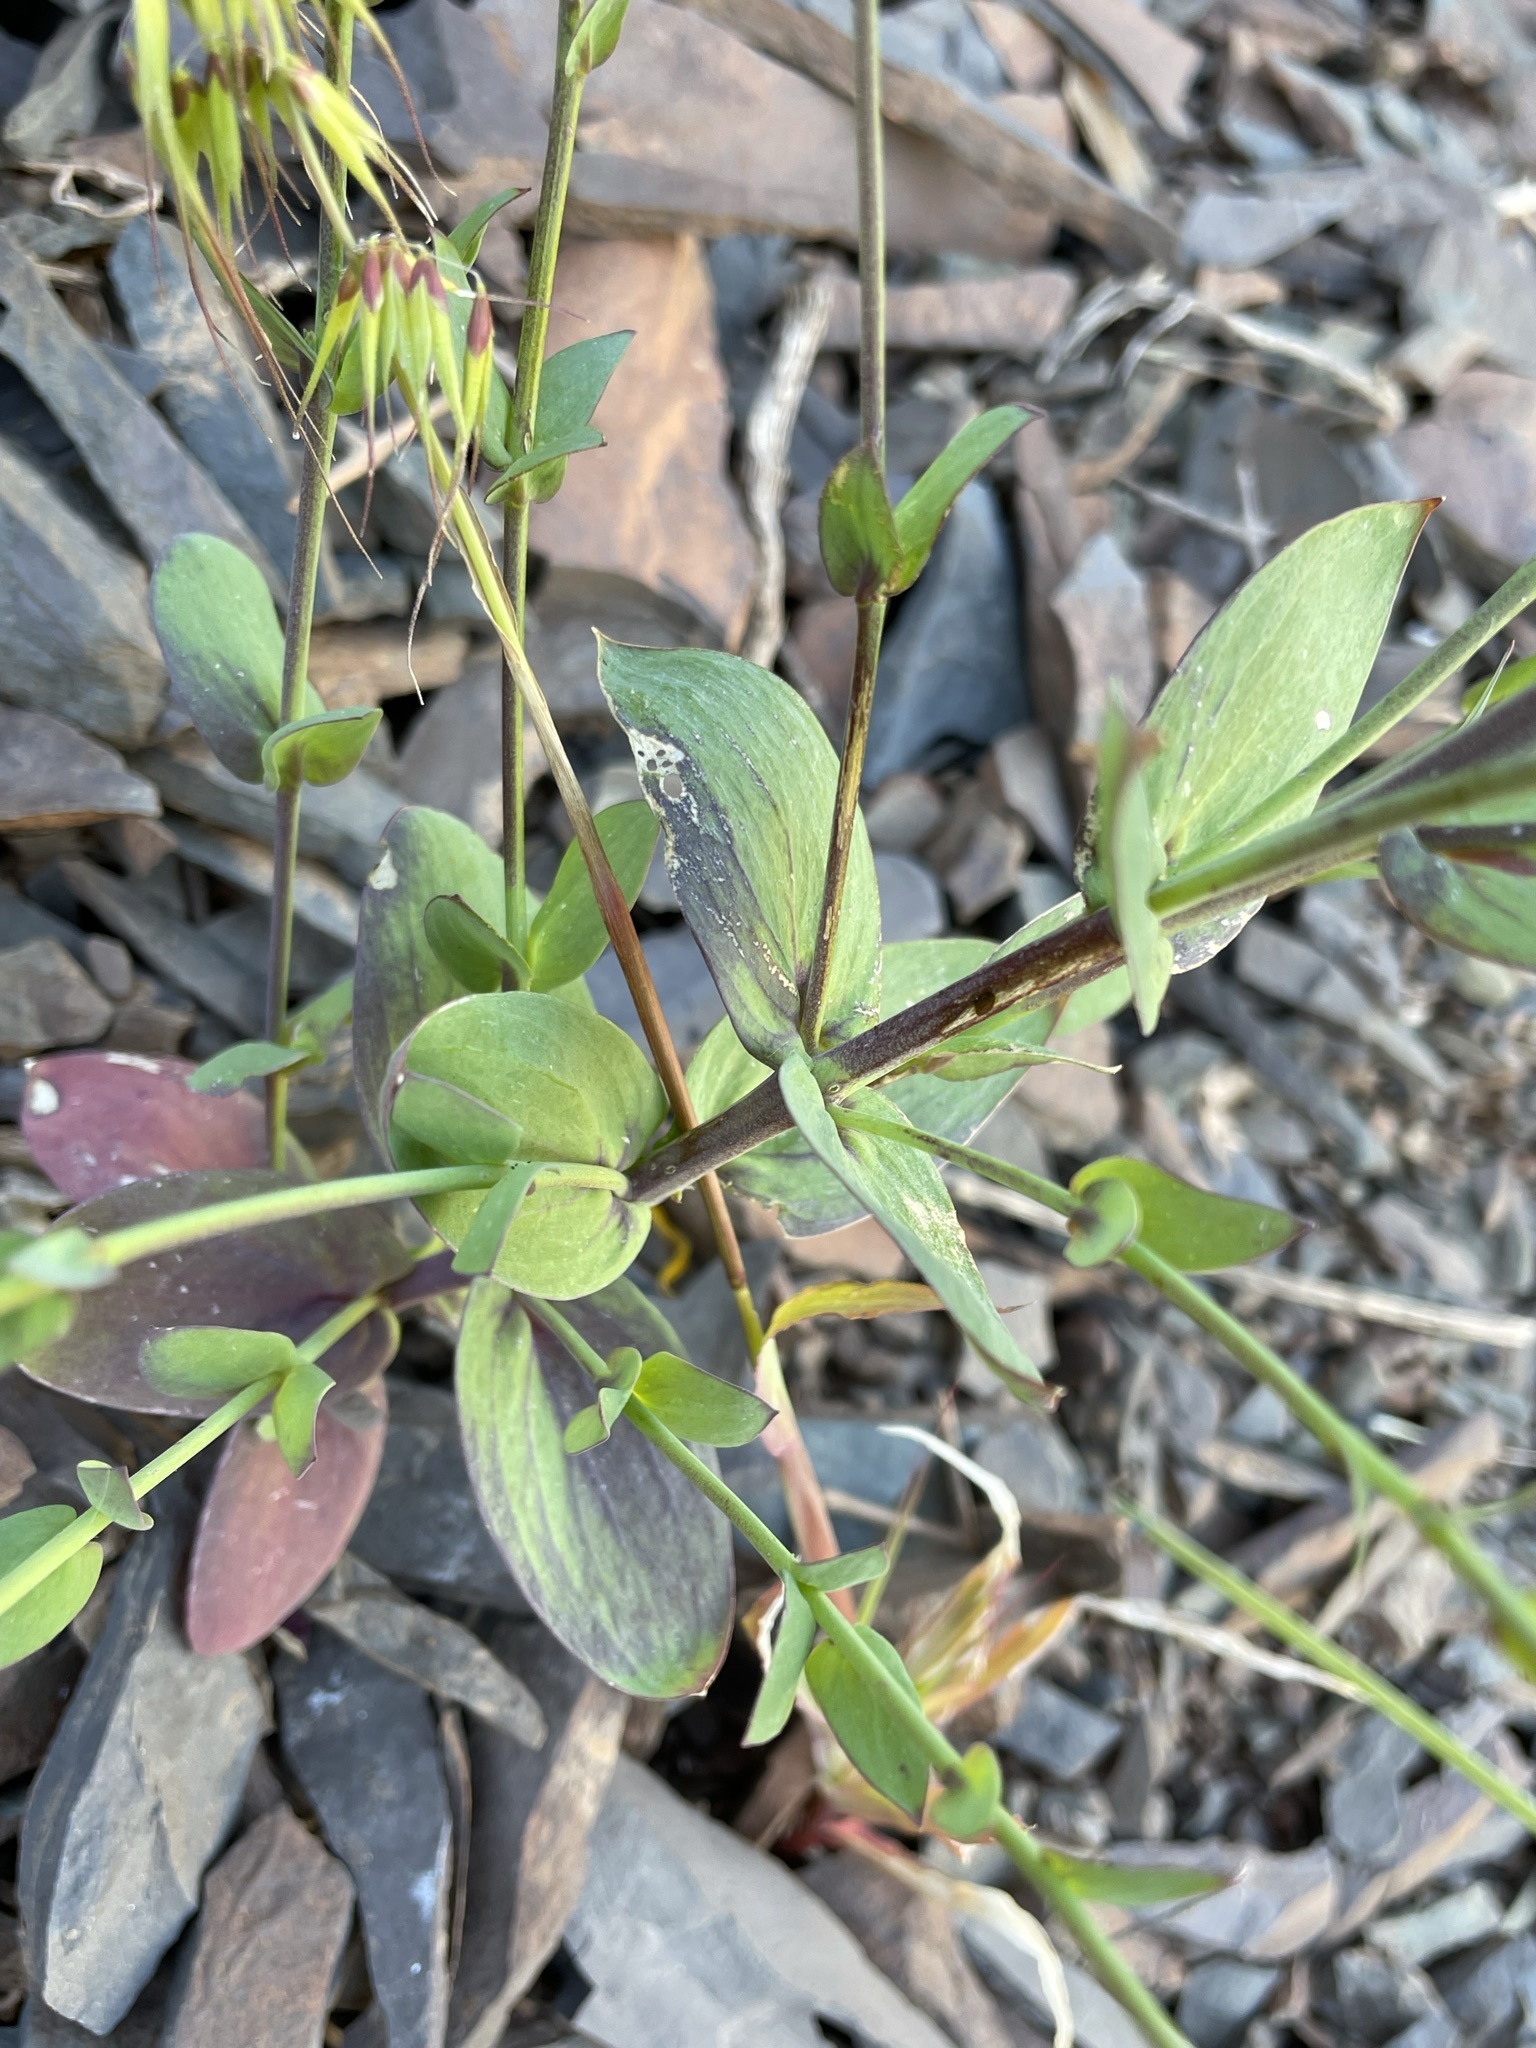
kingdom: Plantae
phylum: Tracheophyta
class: Magnoliopsida
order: Brassicales
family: Brassicaceae
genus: Heliophila
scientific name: Heliophila amplexicaulis
